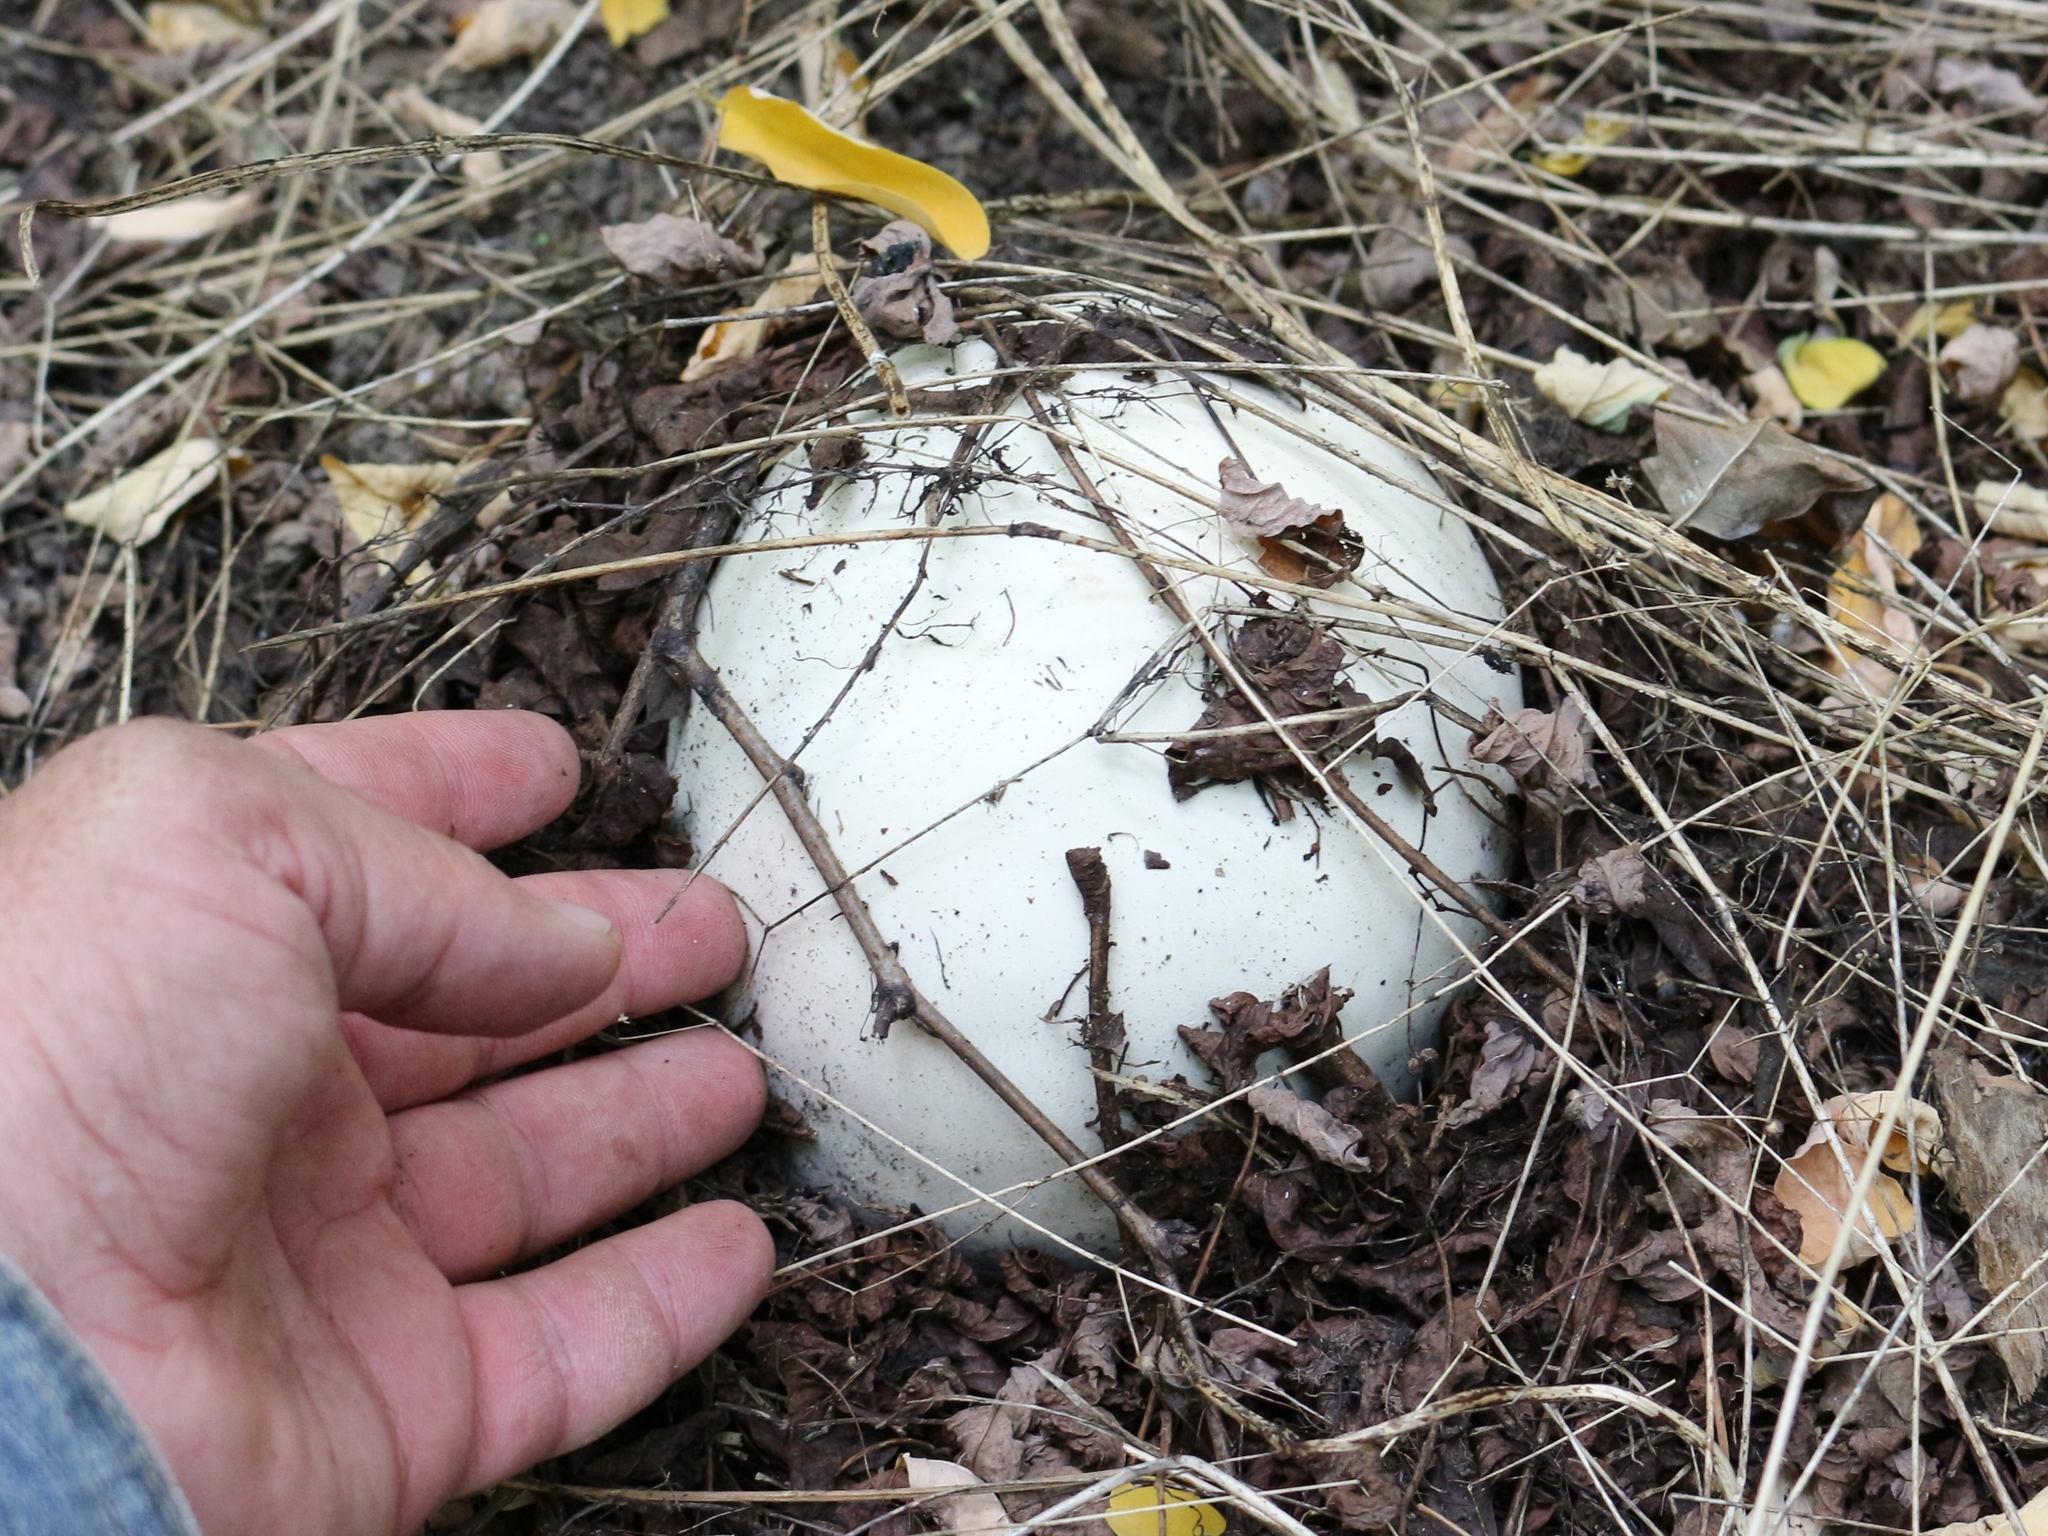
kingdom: Fungi
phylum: Basidiomycota
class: Agaricomycetes
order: Agaricales
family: Lycoperdaceae
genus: Calvatia
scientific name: Calvatia gigantea
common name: Giant puffball
